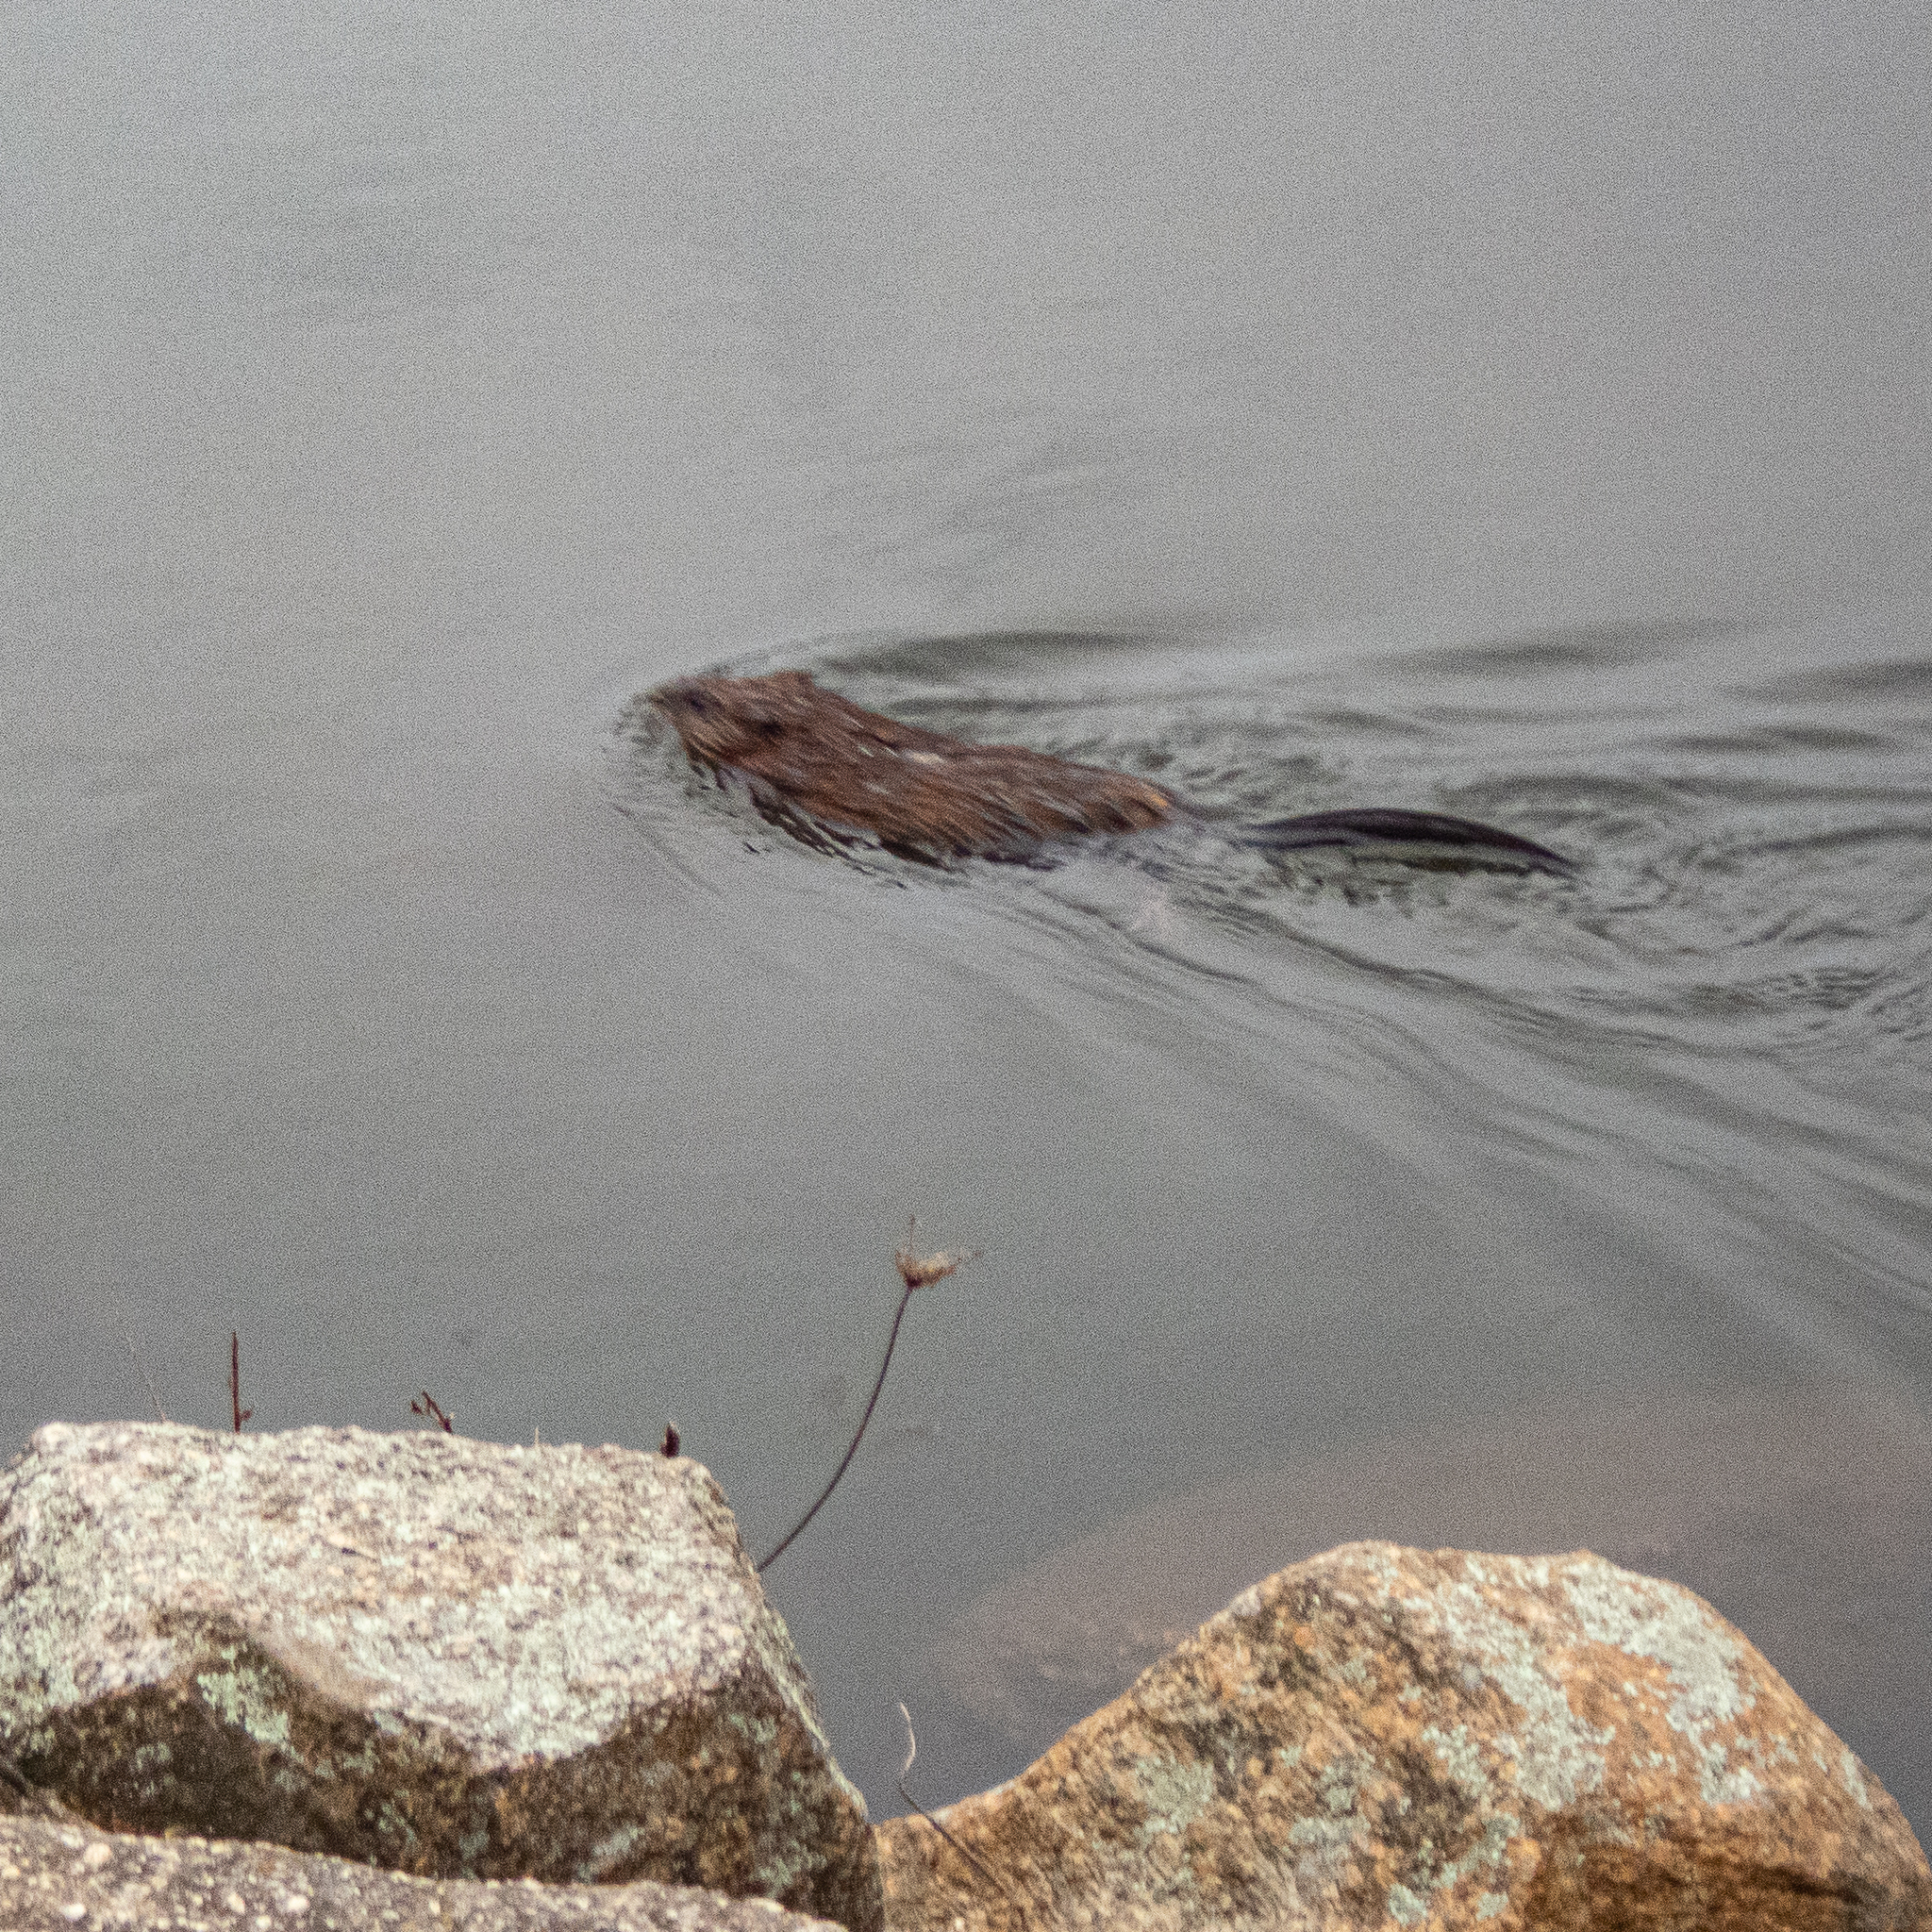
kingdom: Animalia
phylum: Chordata
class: Mammalia
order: Rodentia
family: Cricetidae
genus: Ondatra
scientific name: Ondatra zibethicus
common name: Muskrat
